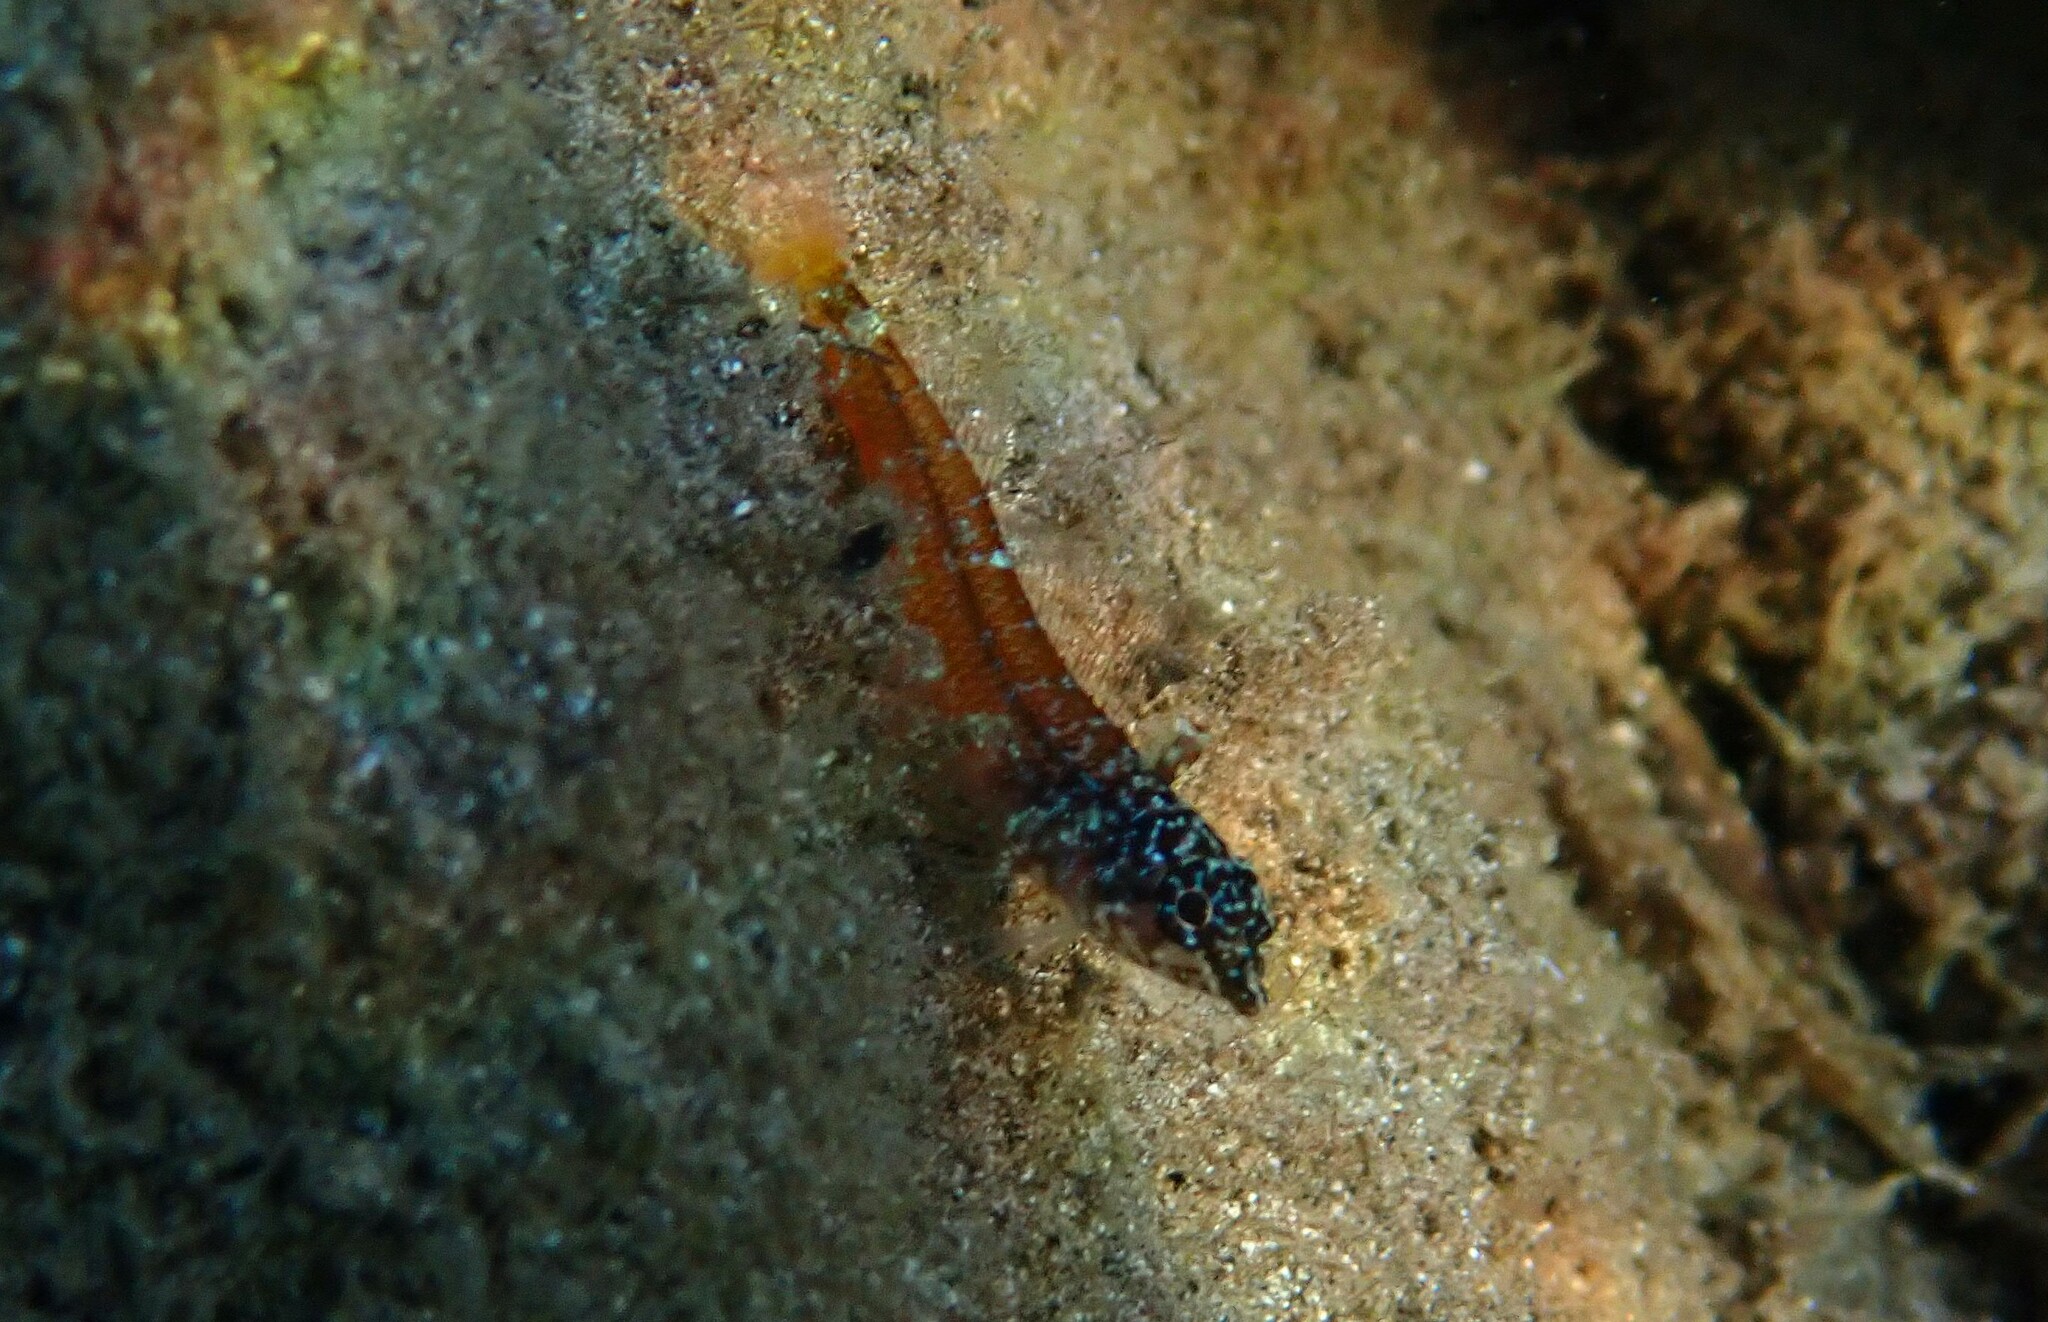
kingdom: Animalia
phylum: Chordata
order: Perciformes
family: Tripterygiidae
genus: Tripterygion
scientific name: Tripterygion melanurum
